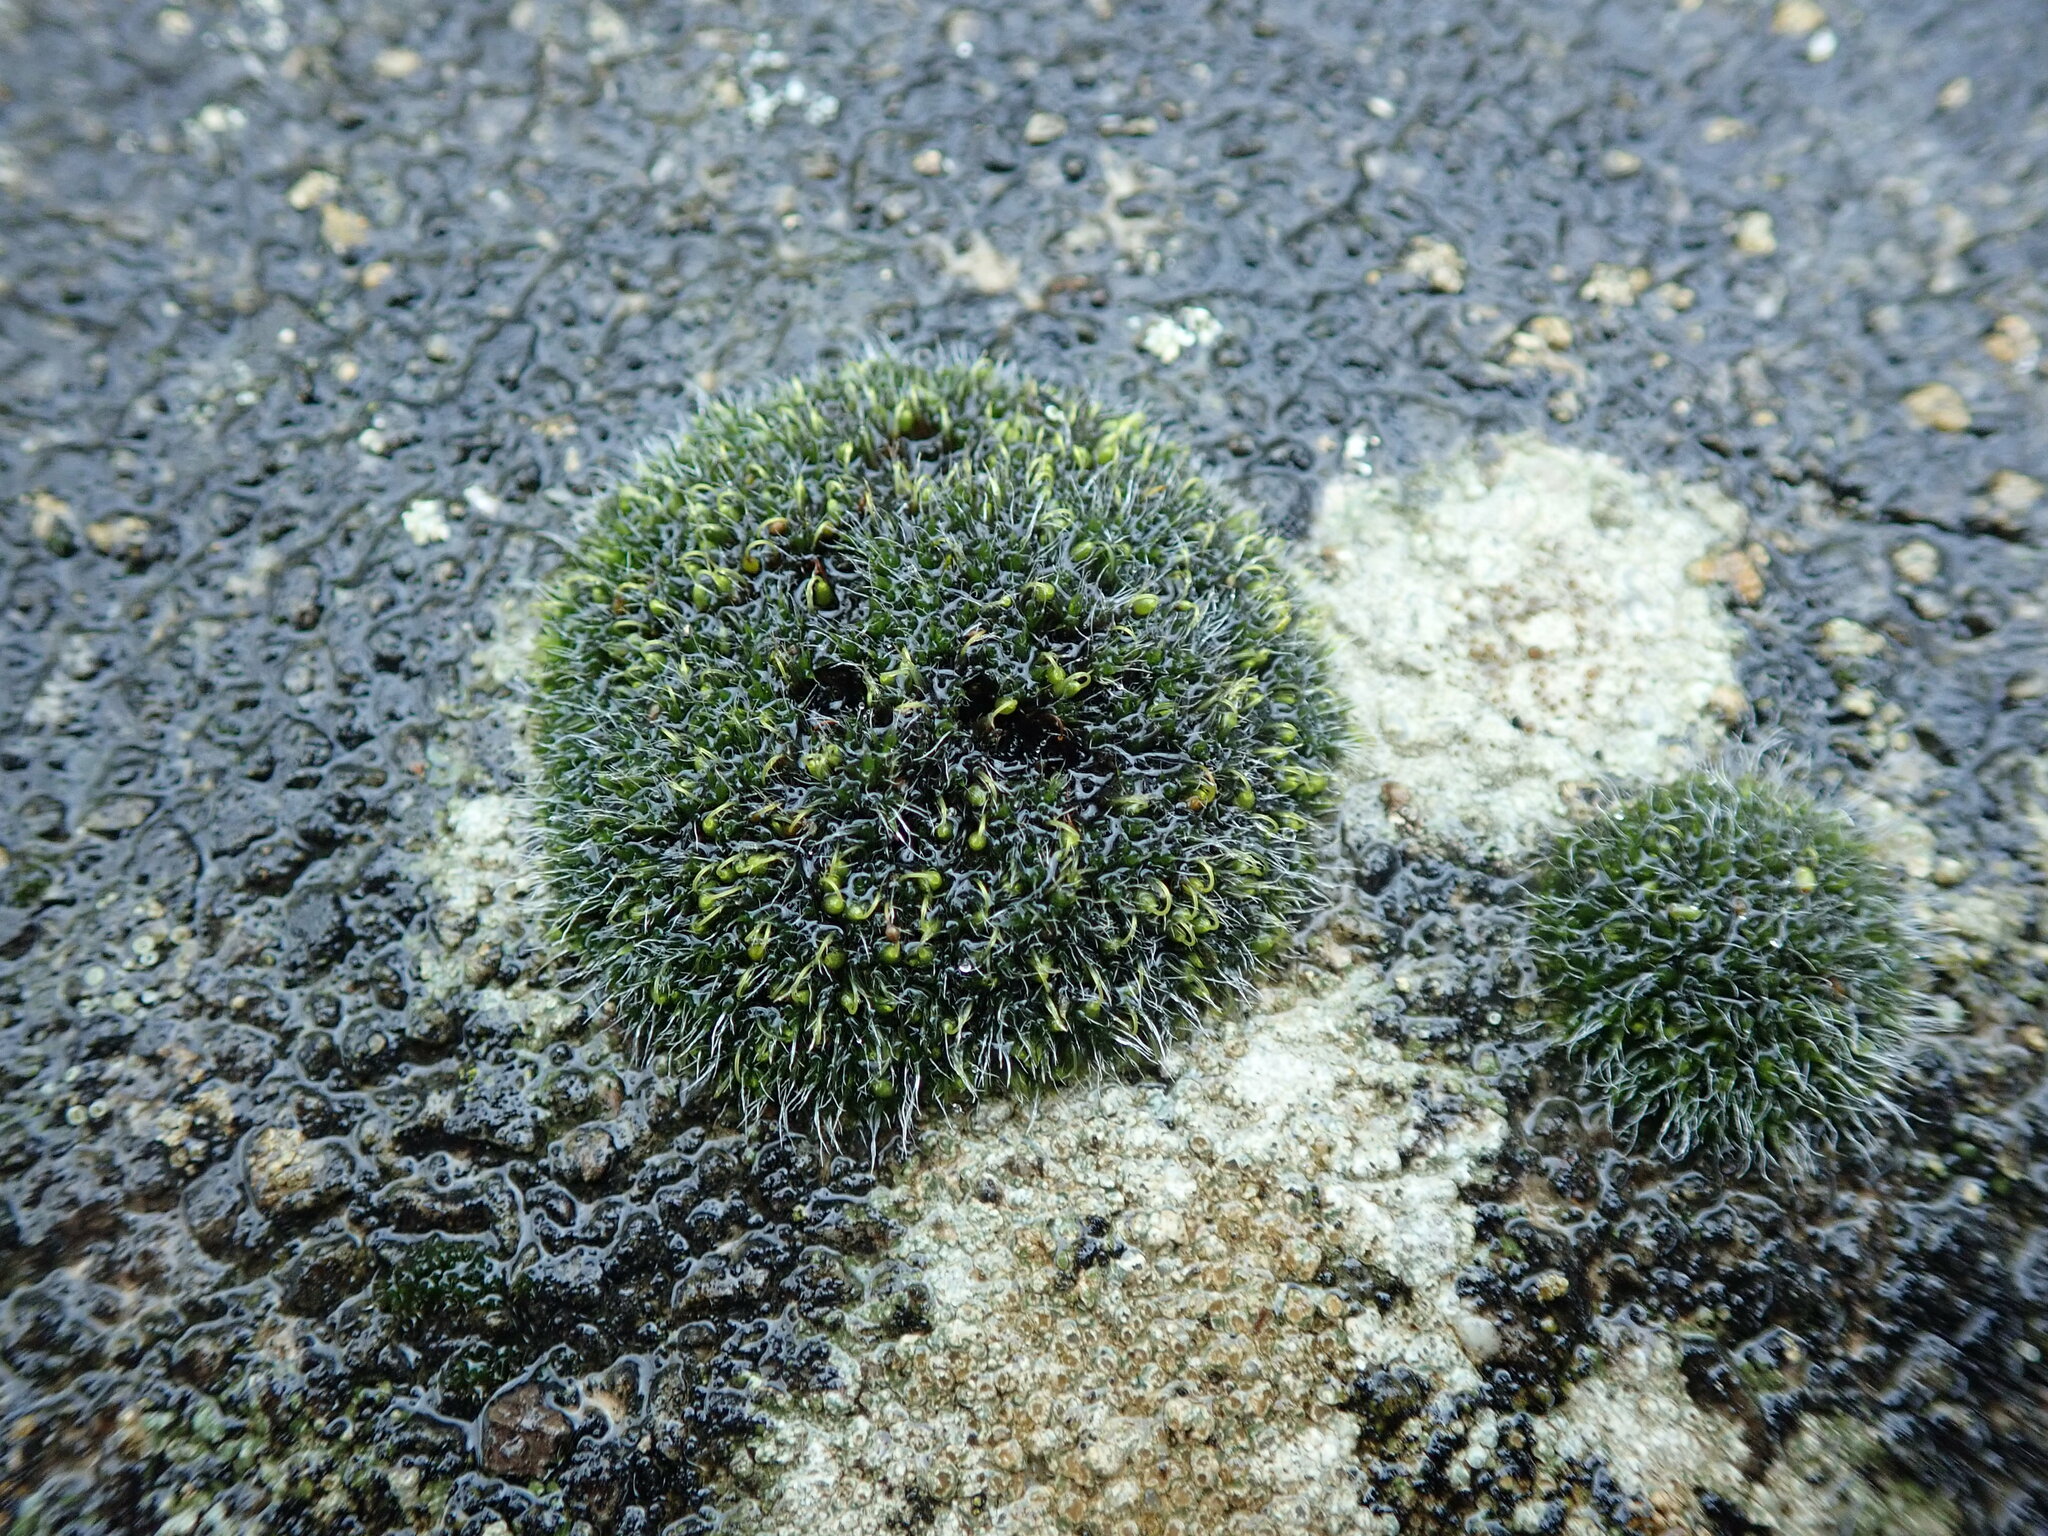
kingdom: Plantae
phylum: Bryophyta
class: Bryopsida
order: Grimmiales
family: Grimmiaceae
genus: Grimmia
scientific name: Grimmia pulvinata
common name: Grey-cushioned grimmia
